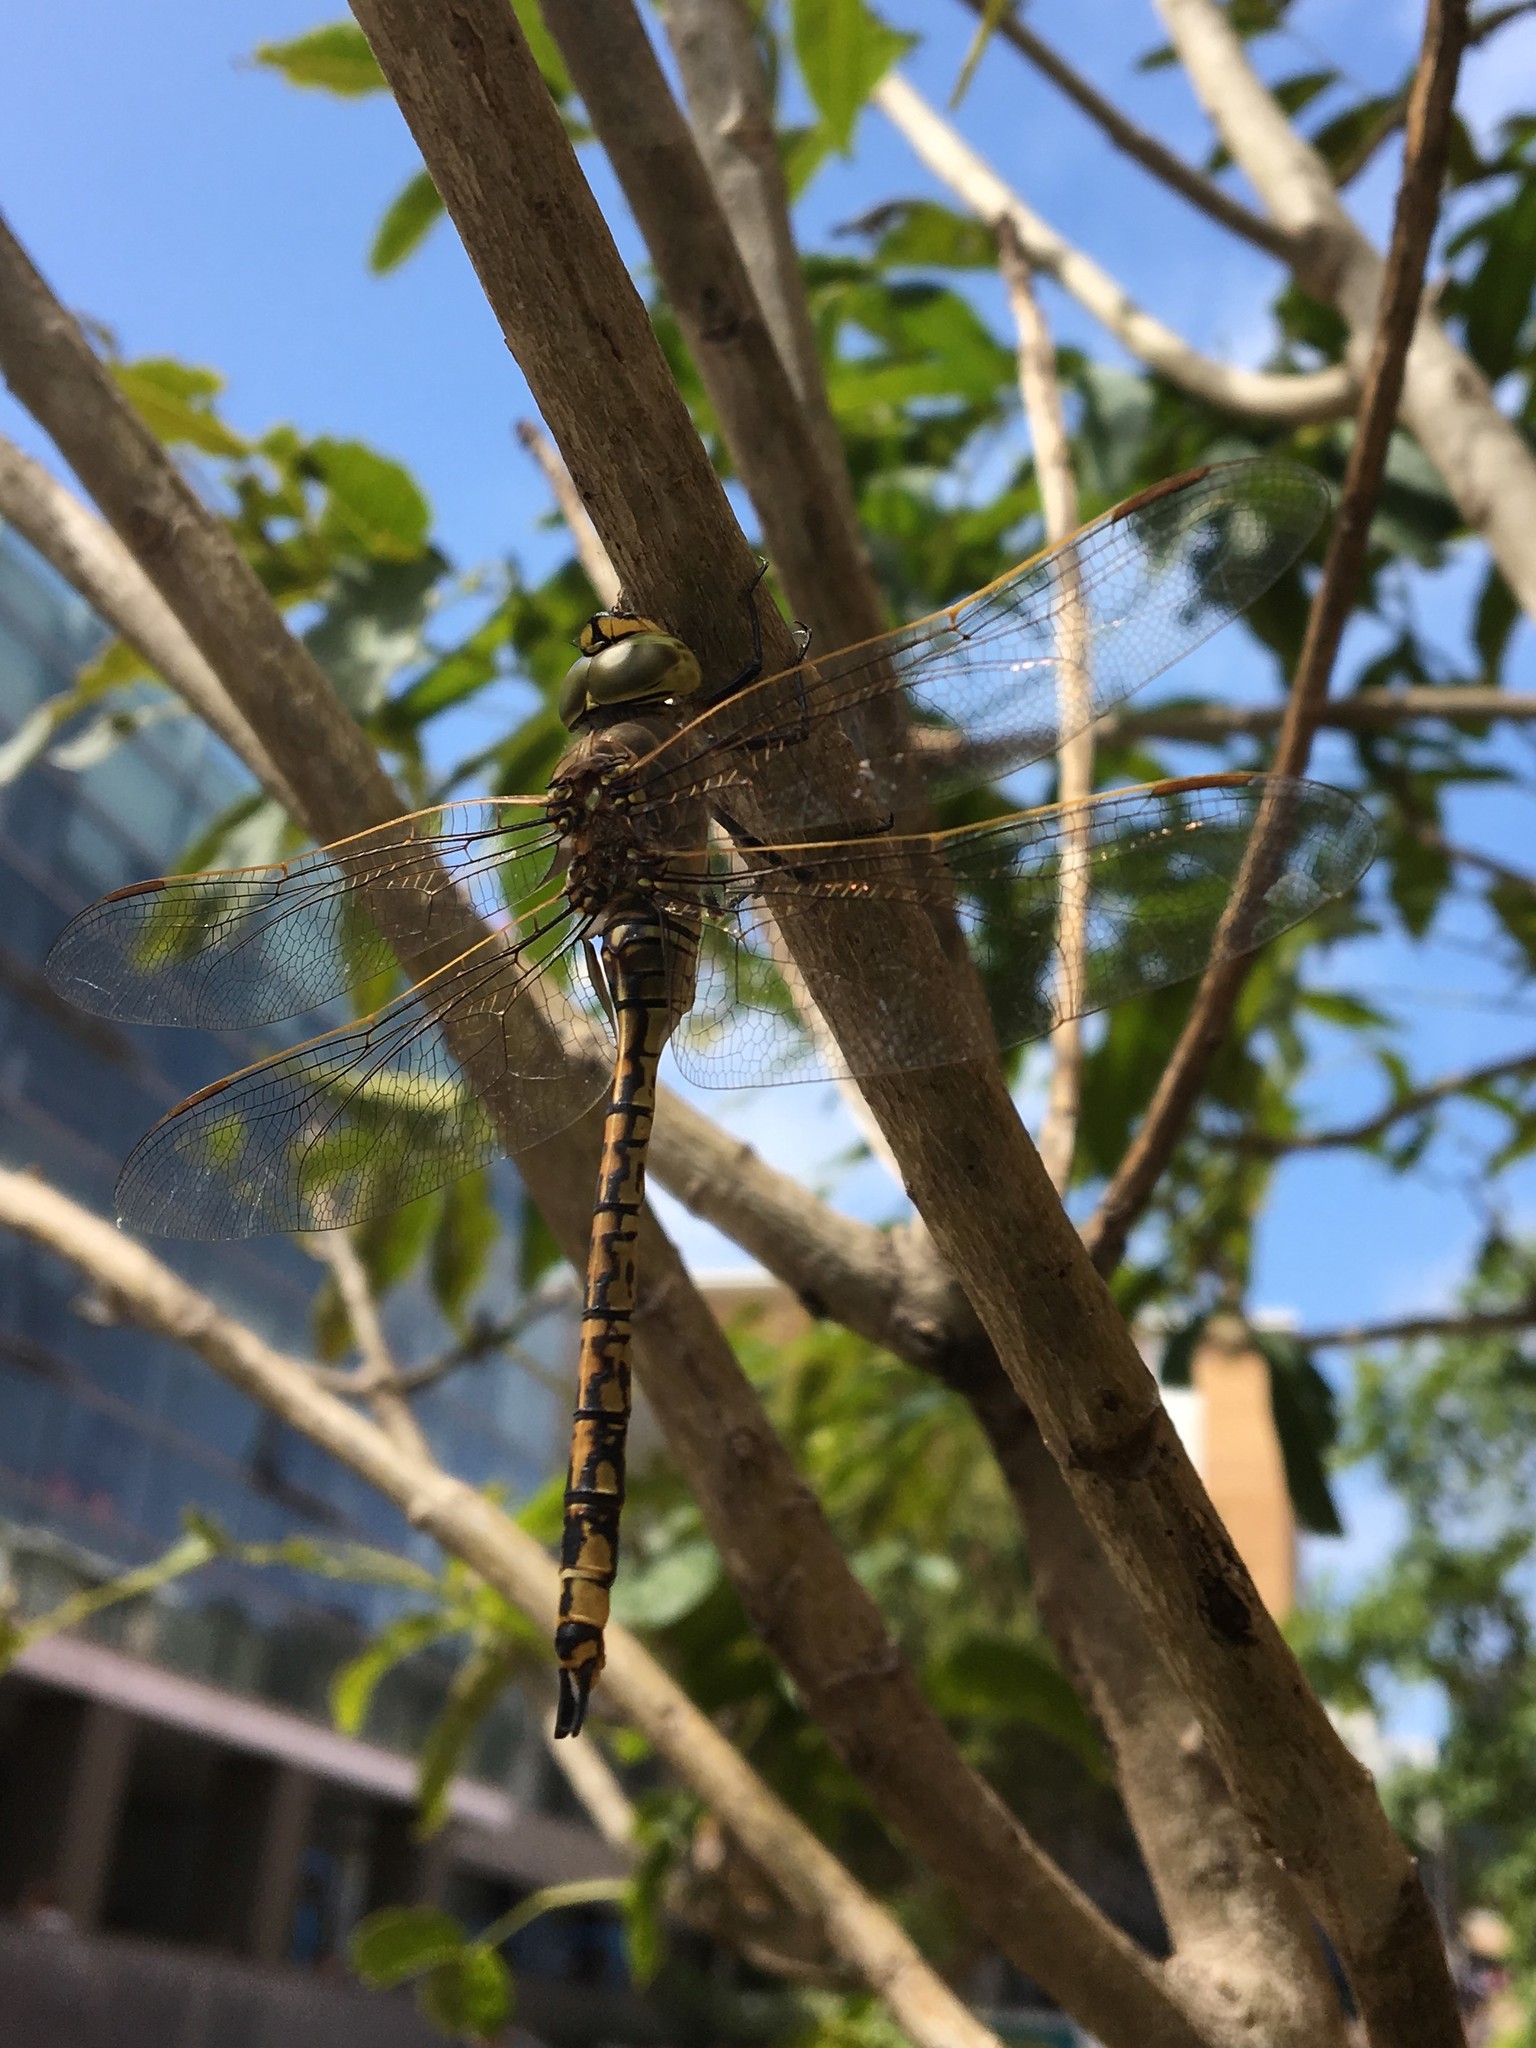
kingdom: Animalia
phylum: Arthropoda
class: Insecta
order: Odonata
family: Aeshnidae
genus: Anax
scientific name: Anax papuensis
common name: Australian emperor
